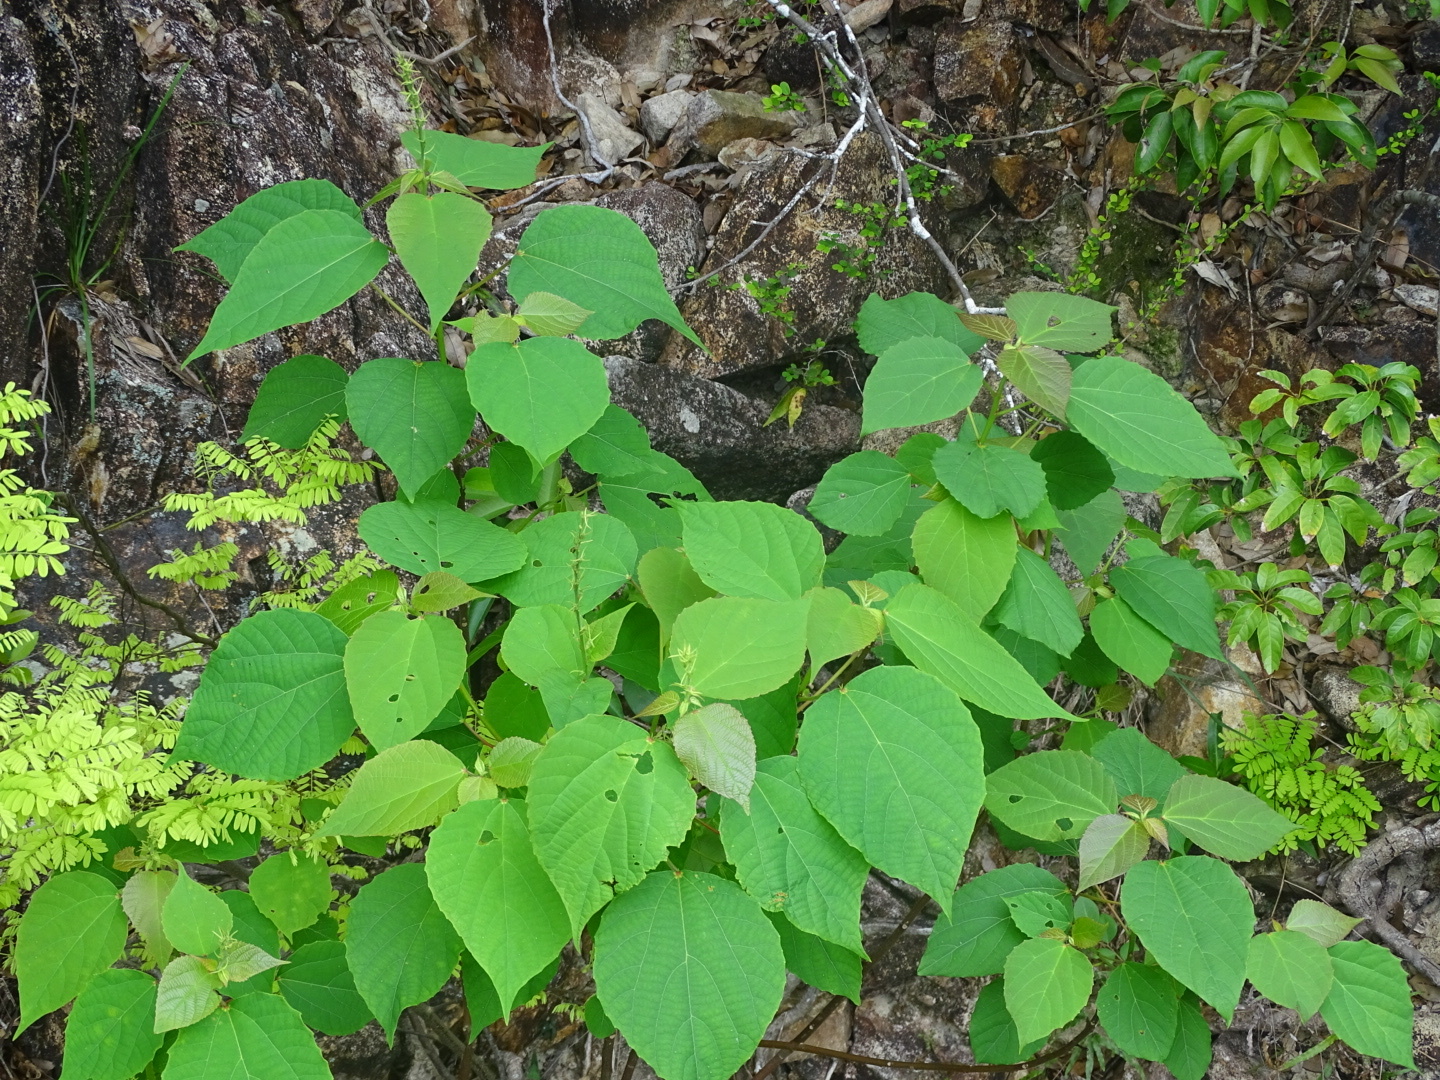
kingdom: Plantae
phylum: Tracheophyta
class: Magnoliopsida
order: Malpighiales
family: Euphorbiaceae
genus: Alchornea
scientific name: Alchornea trewioides
